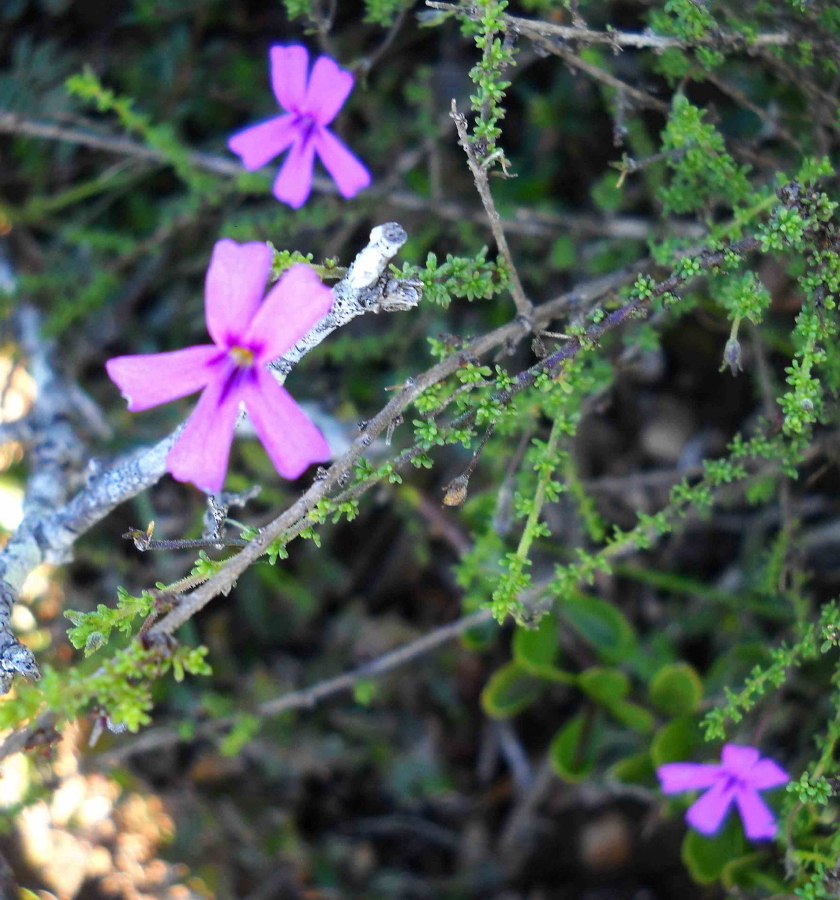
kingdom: Plantae
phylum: Tracheophyta
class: Magnoliopsida
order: Lamiales
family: Scrophulariaceae
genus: Jamesbrittenia
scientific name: Jamesbrittenia calciphila
